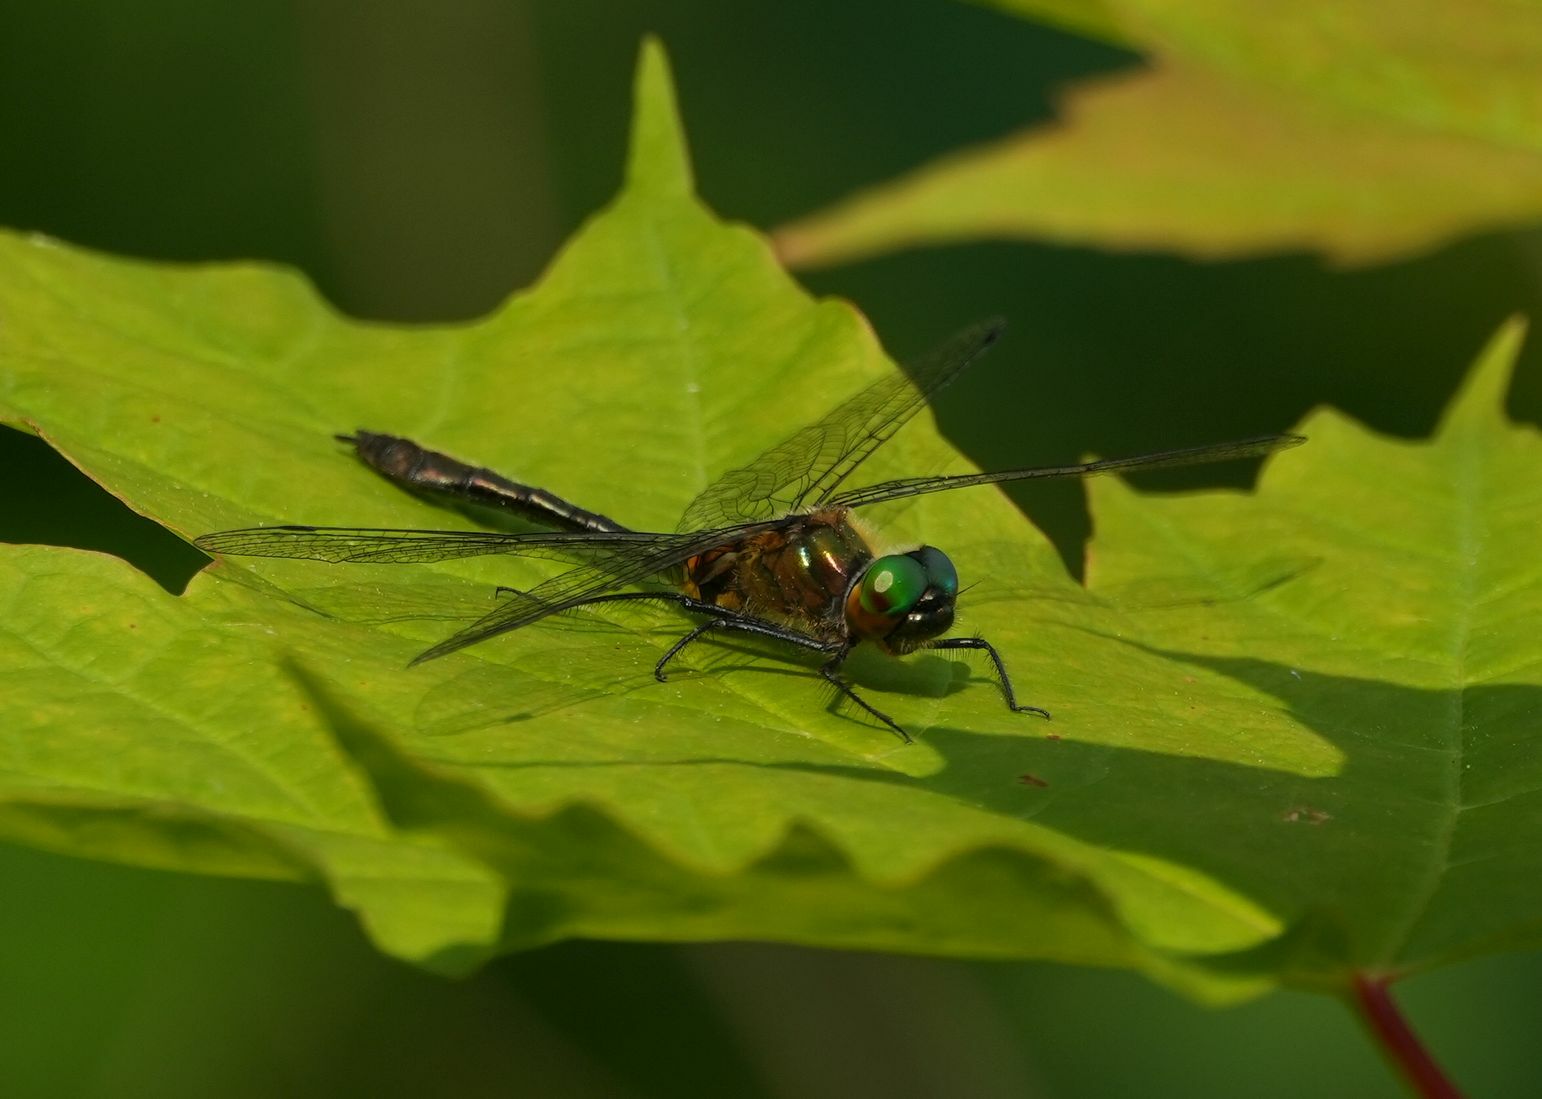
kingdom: Animalia
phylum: Arthropoda
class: Insecta
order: Odonata
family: Corduliidae
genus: Dorocordulia
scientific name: Dorocordulia libera
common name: Racket-tailed emerald
